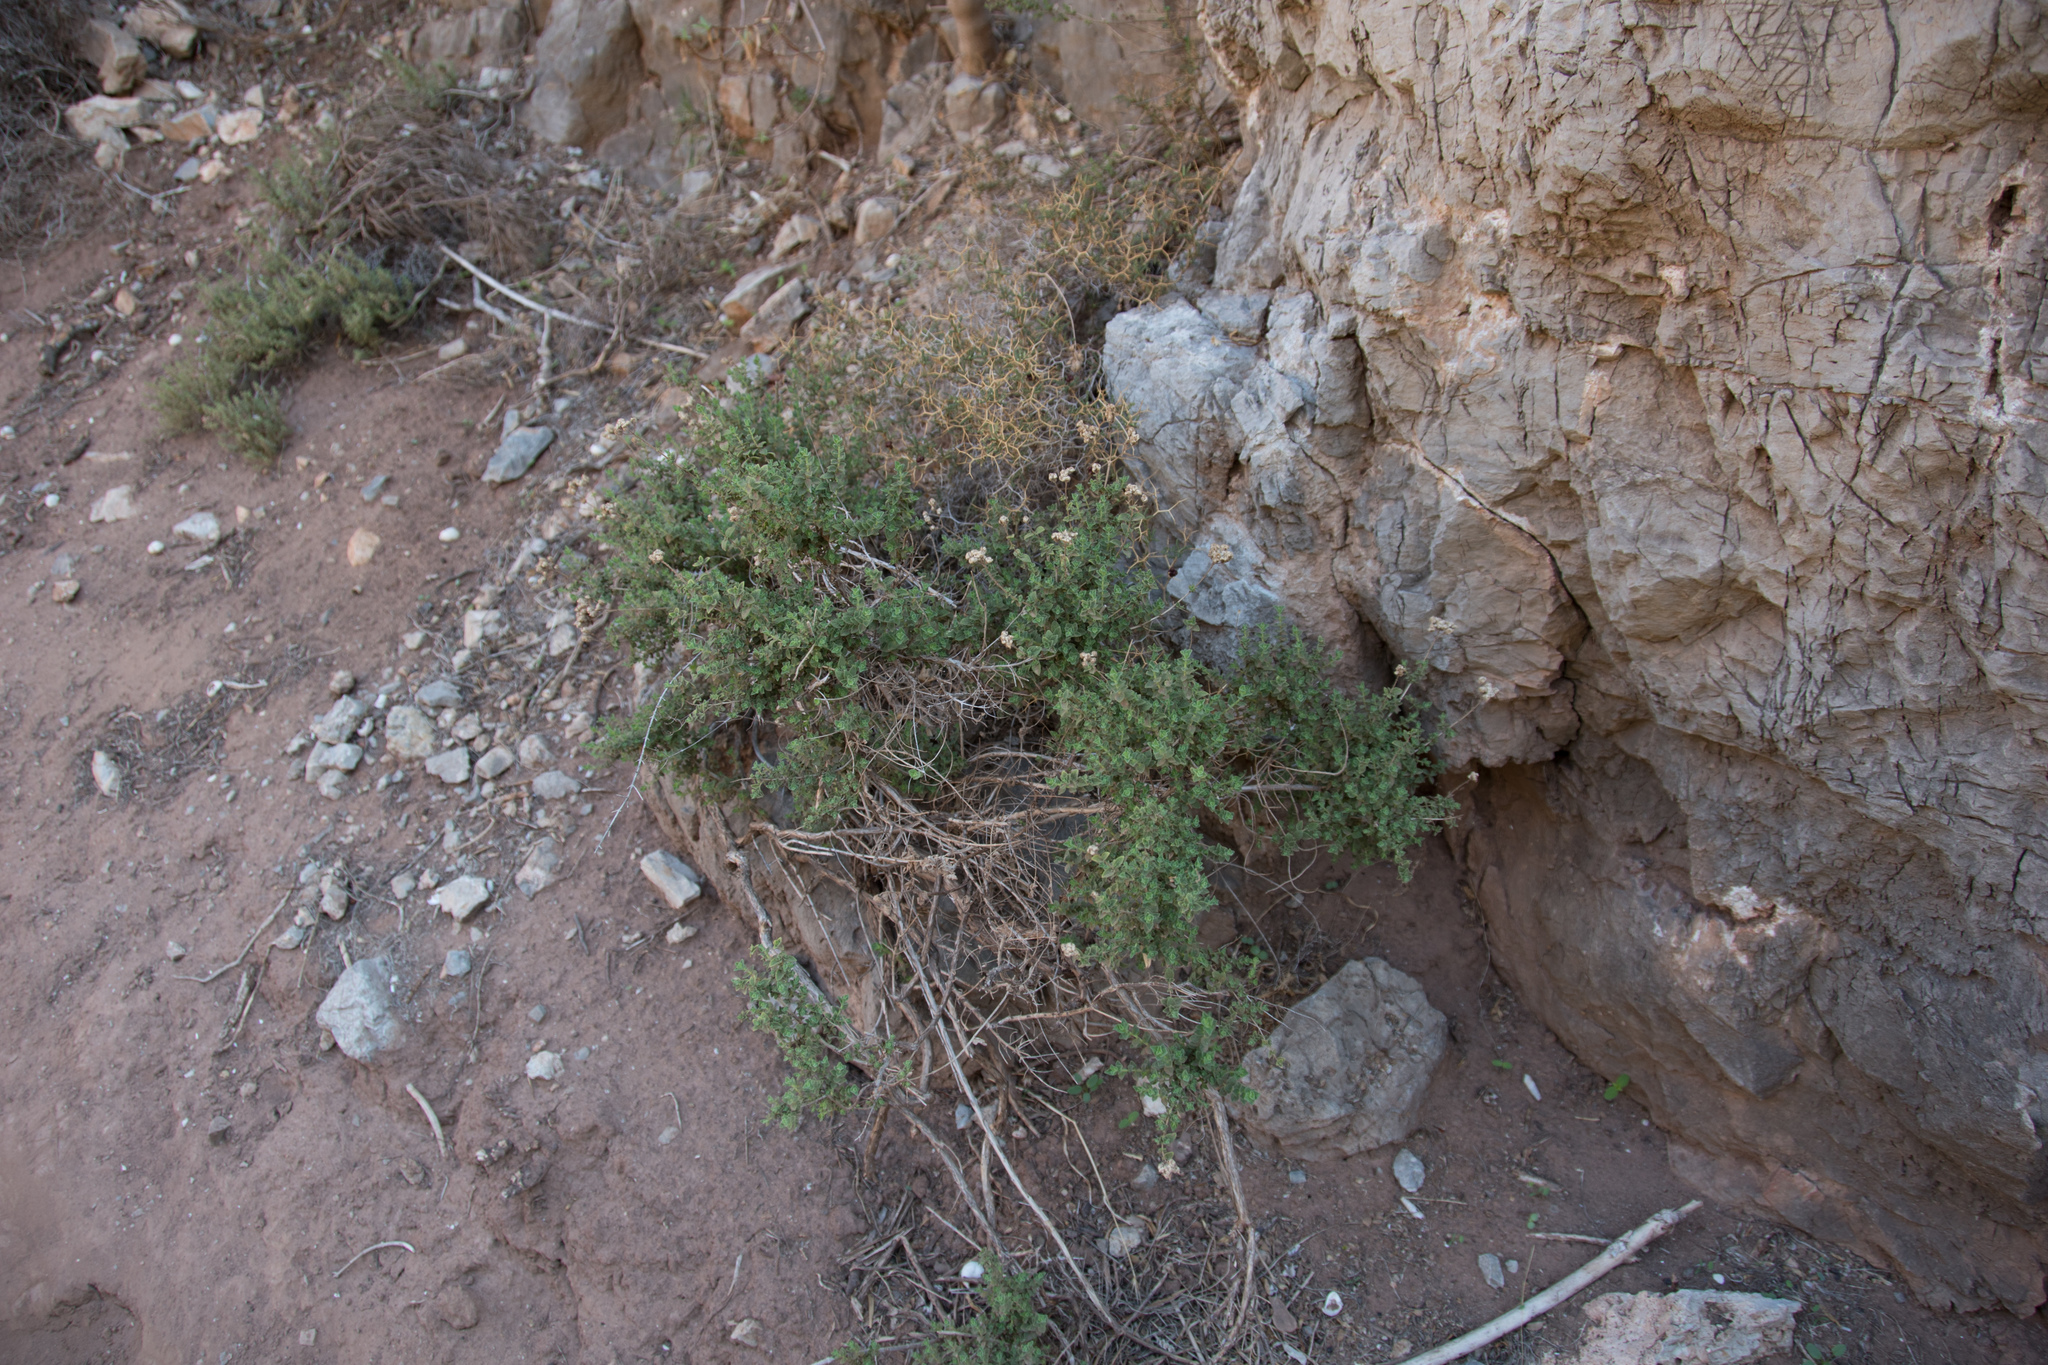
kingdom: Plantae
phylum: Tracheophyta
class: Magnoliopsida
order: Lamiales
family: Lamiaceae
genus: Origanum
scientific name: Origanum onites
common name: Turkish oregano
